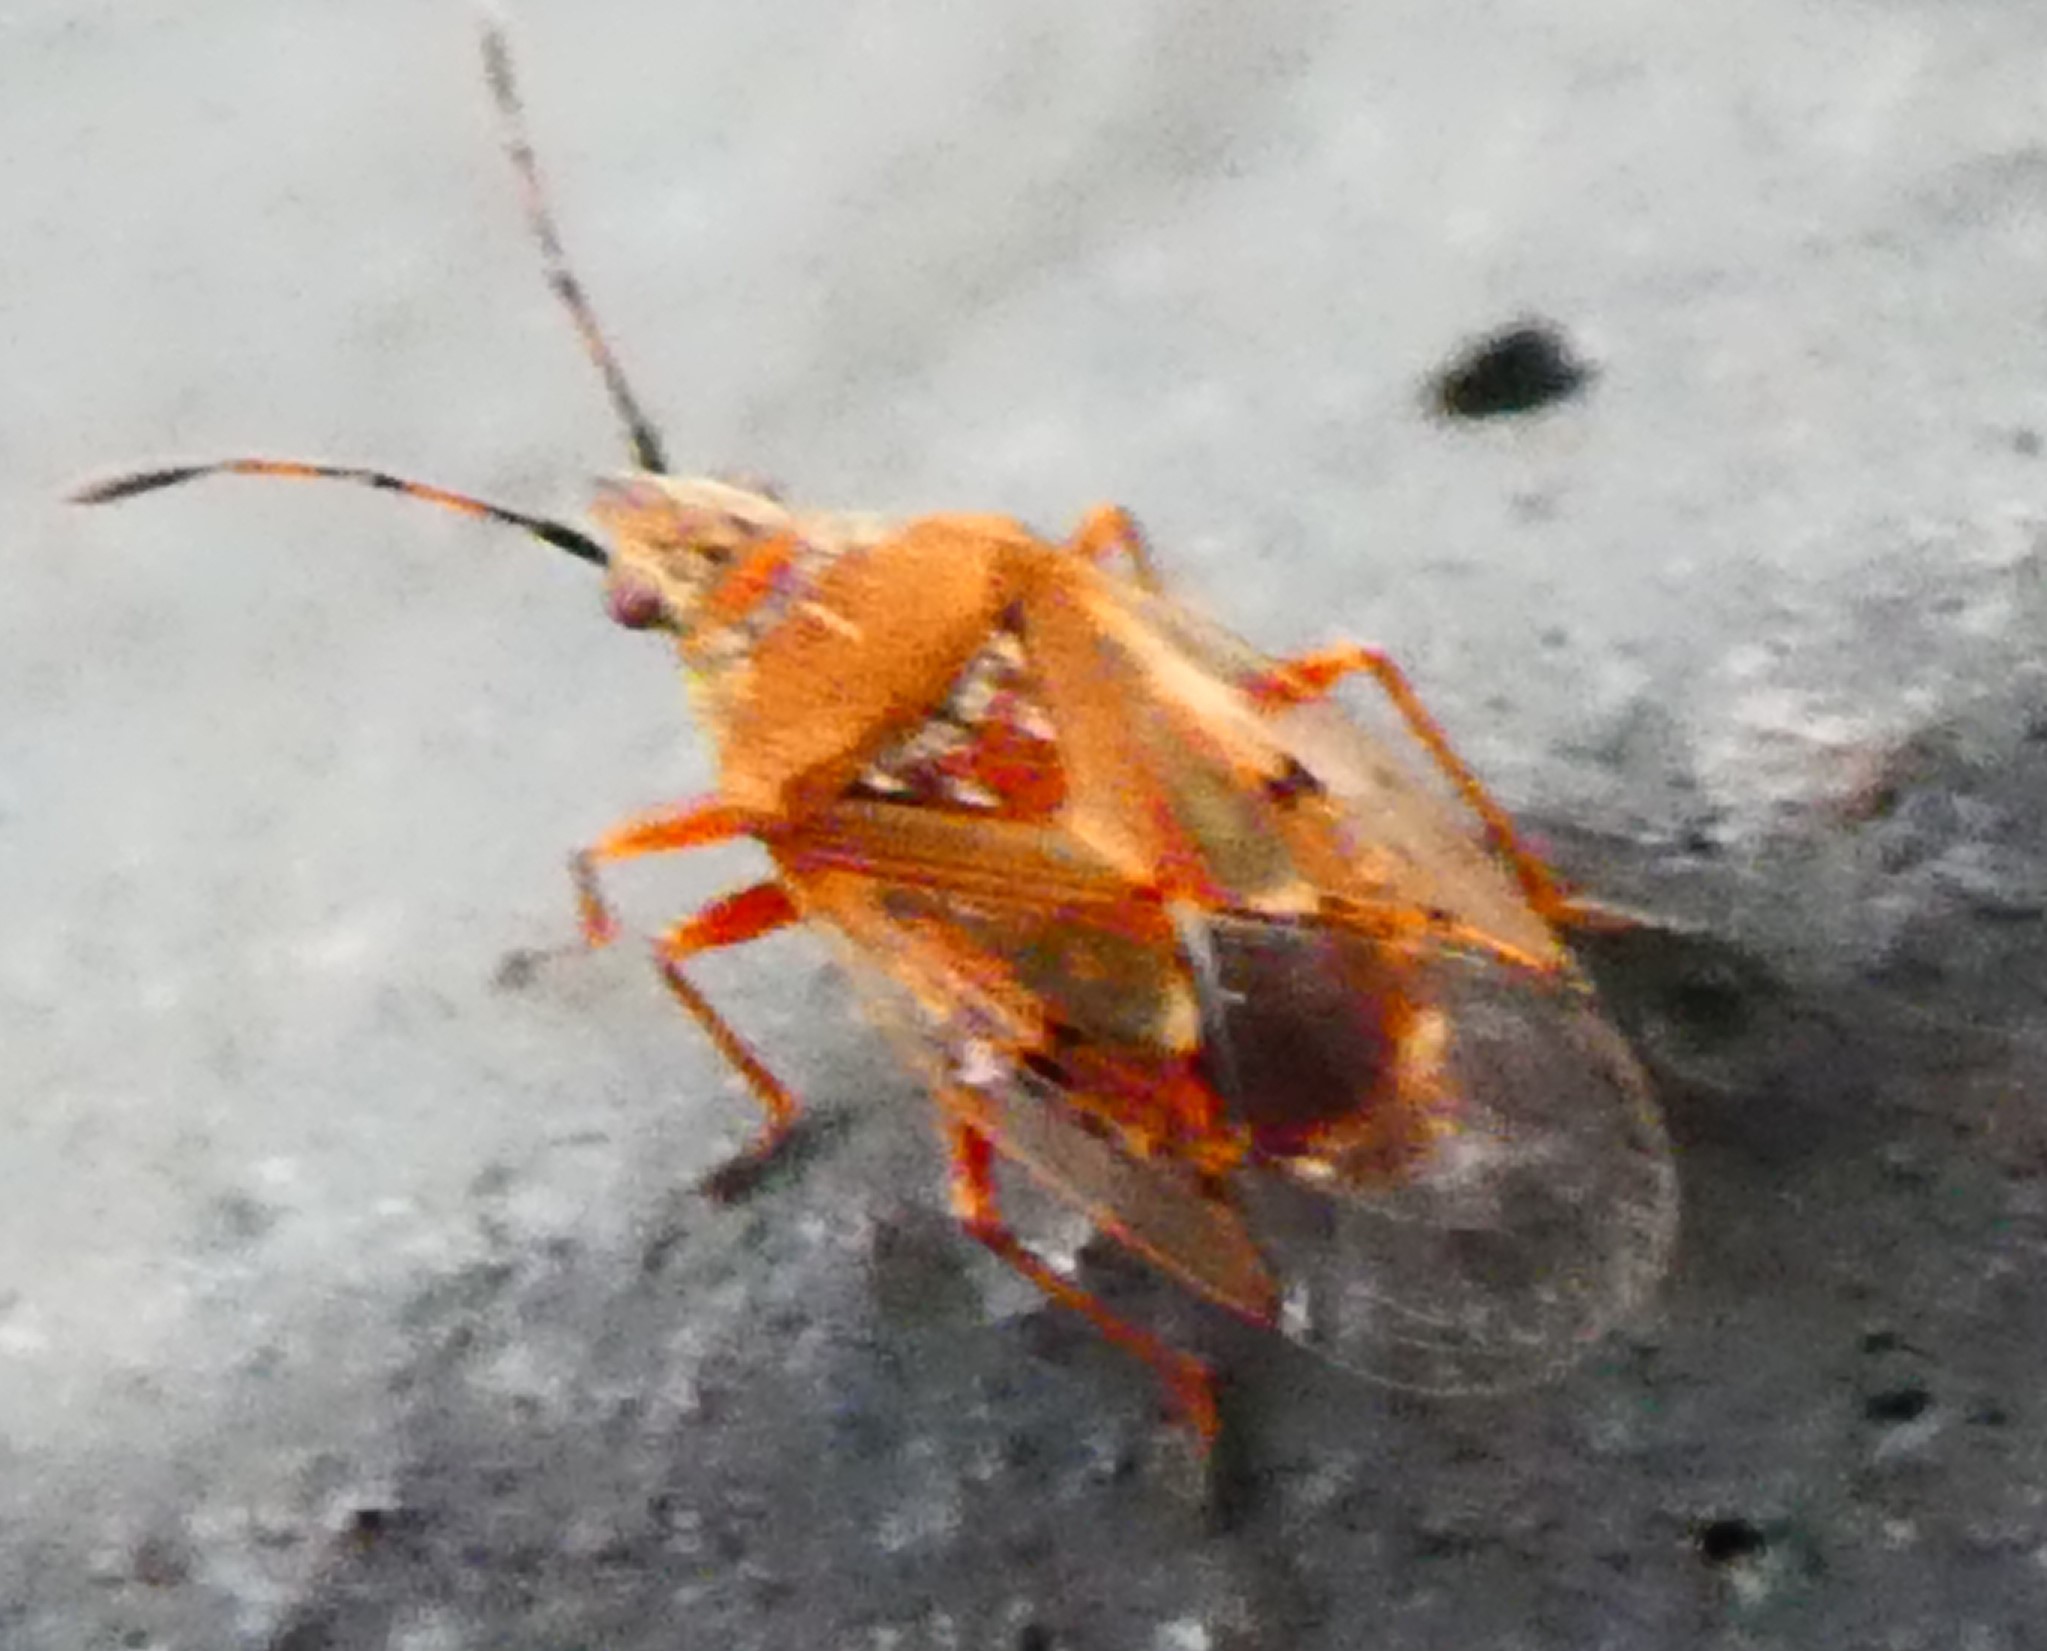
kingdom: Animalia
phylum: Arthropoda
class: Insecta
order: Hemiptera
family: Lygaeidae
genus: Kleidocerys
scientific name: Kleidocerys resedae
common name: Birch catkin bug
